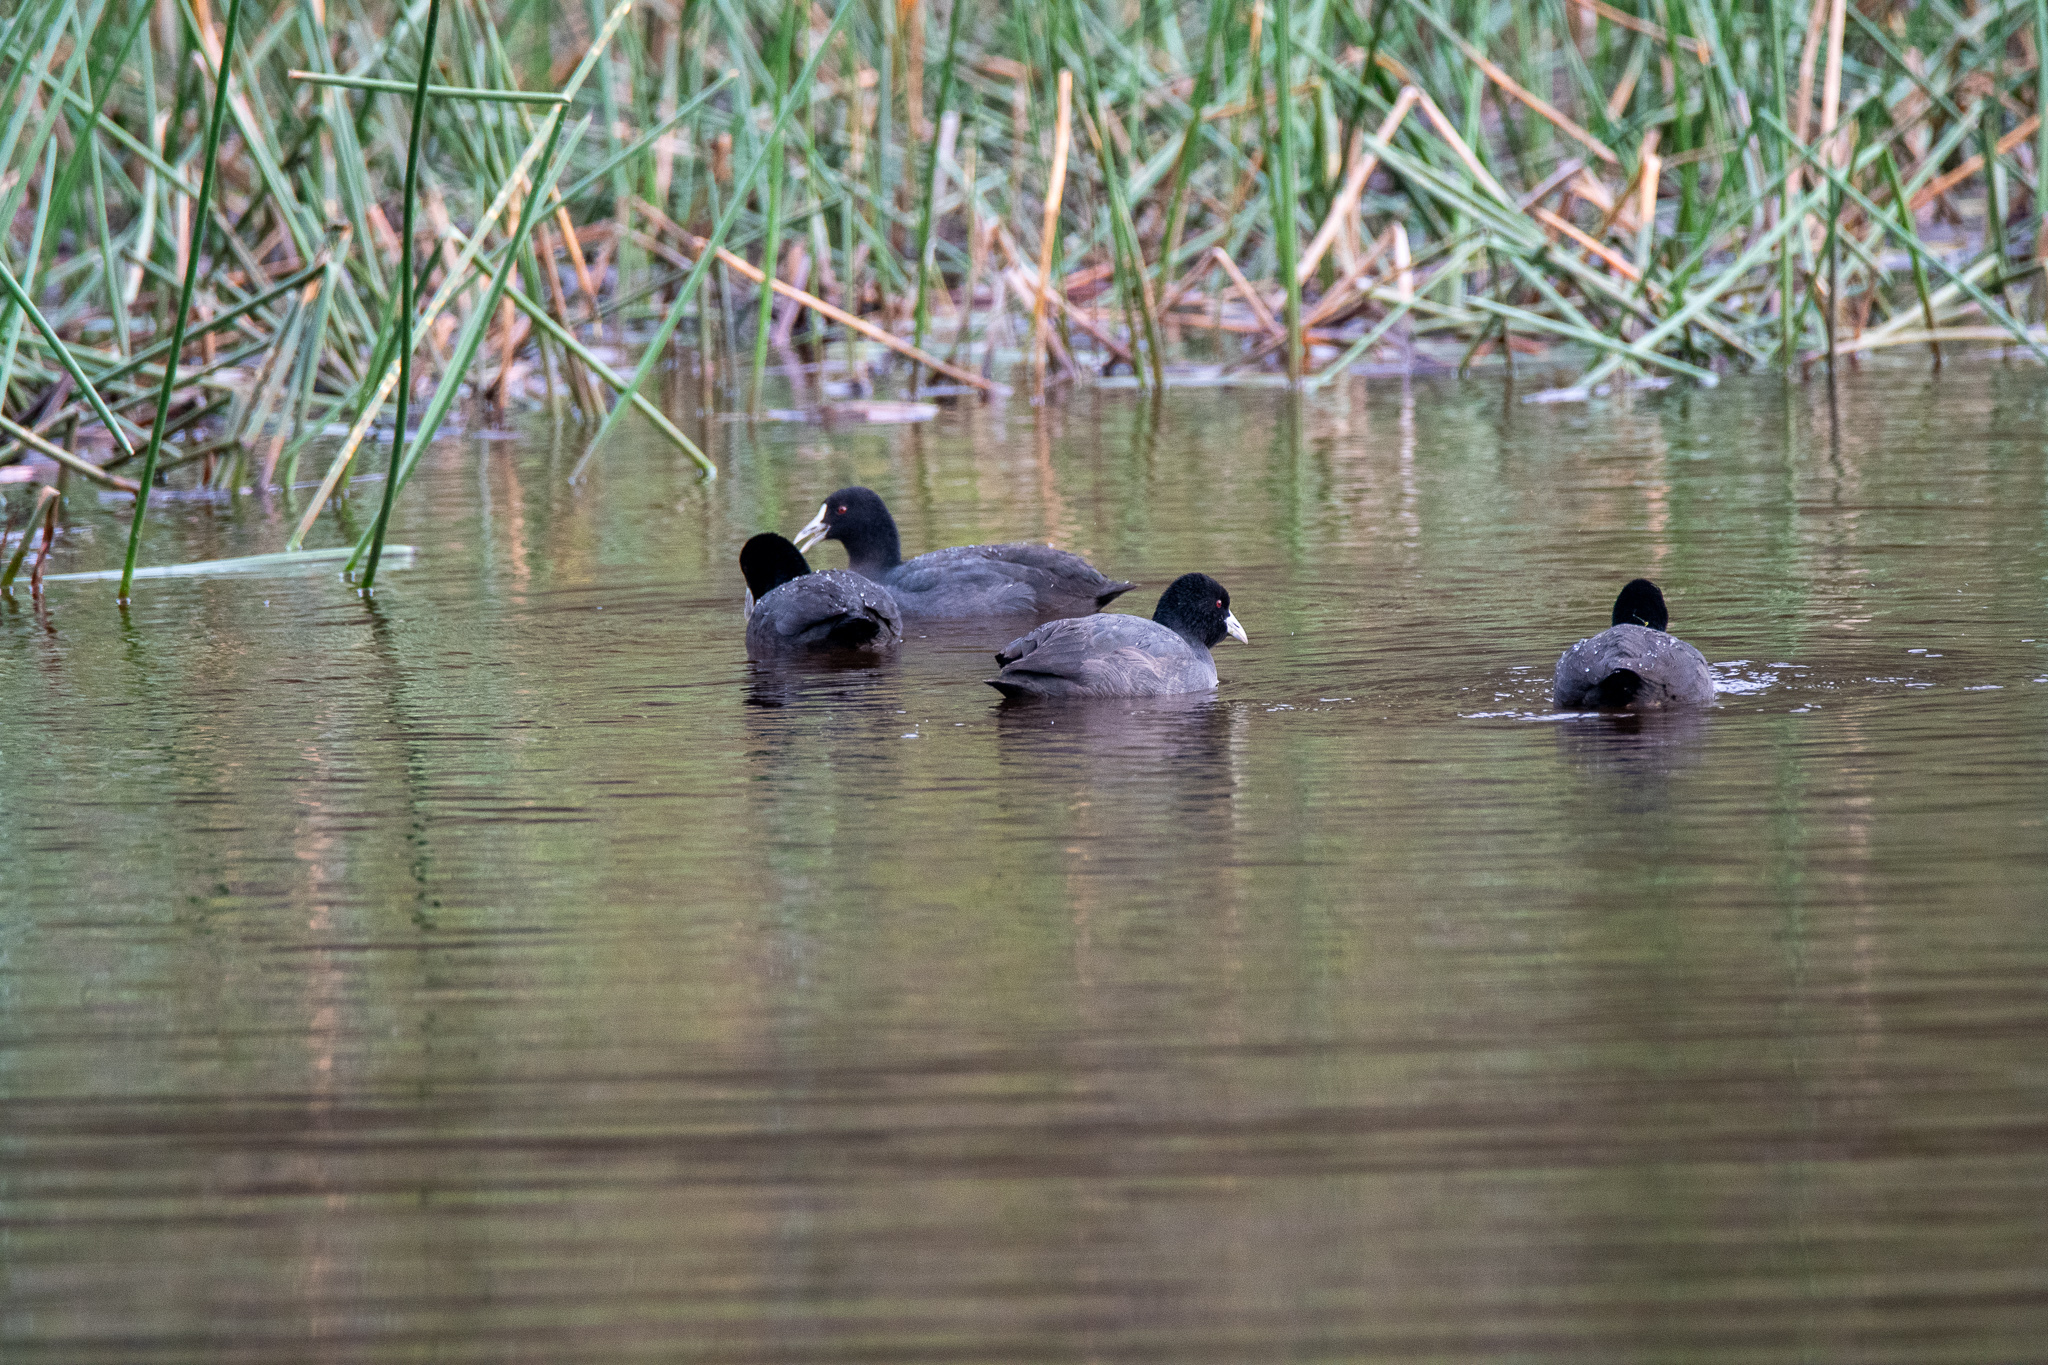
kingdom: Animalia
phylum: Chordata
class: Aves
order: Gruiformes
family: Rallidae
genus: Fulica
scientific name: Fulica atra
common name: Eurasian coot
